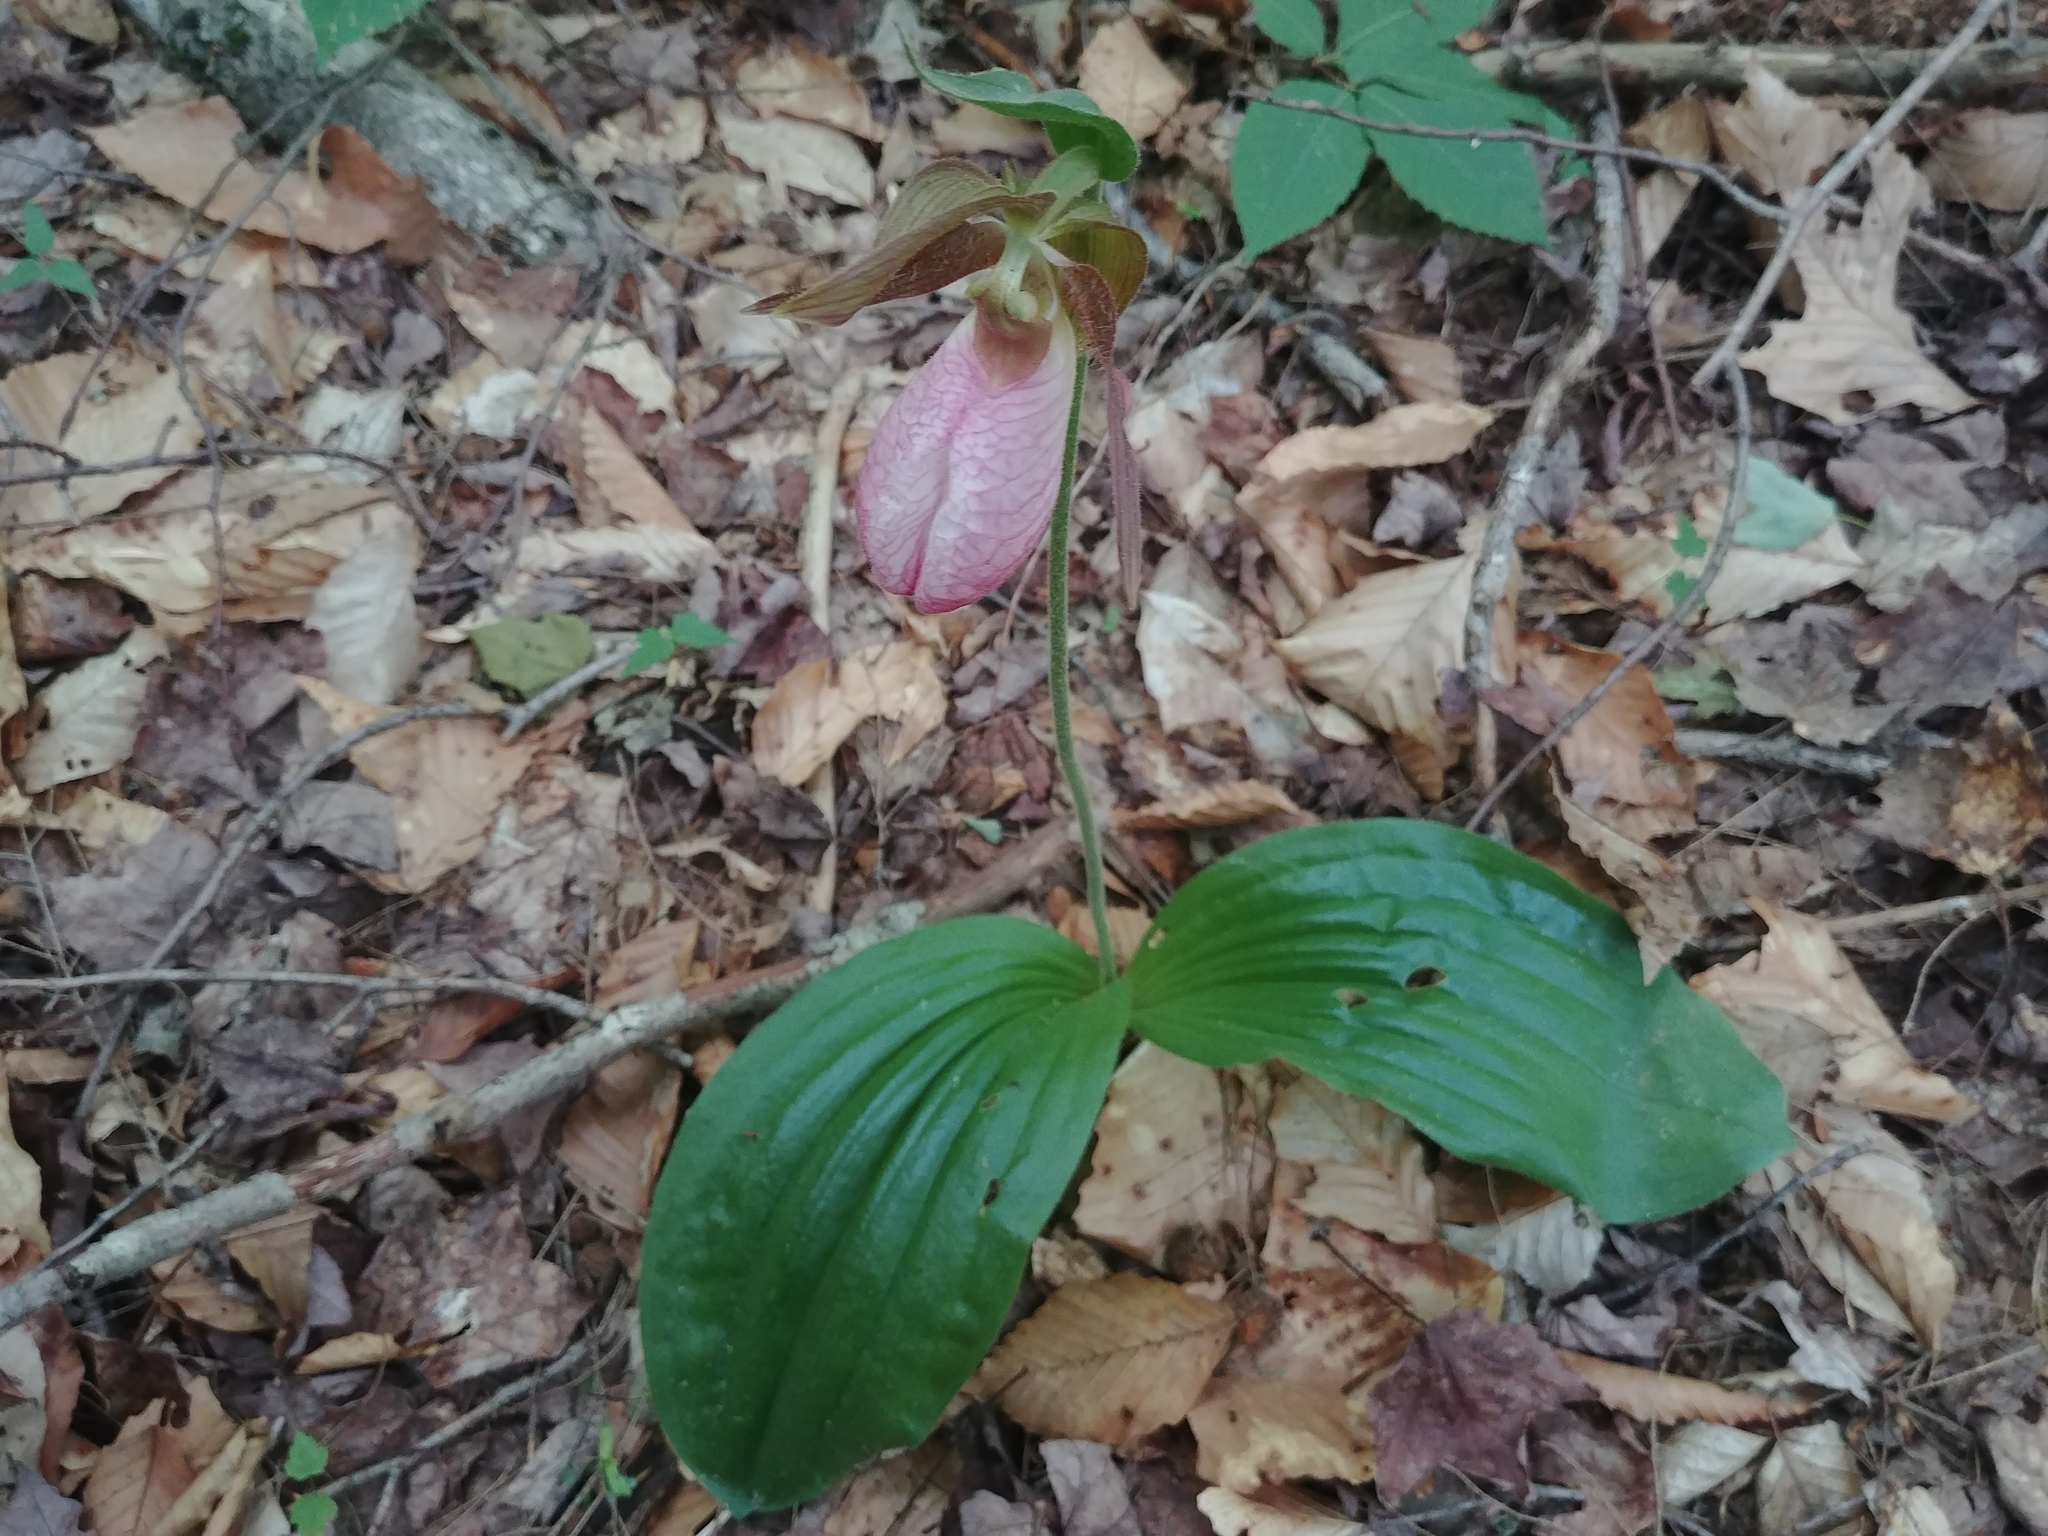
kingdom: Plantae
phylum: Tracheophyta
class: Liliopsida
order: Asparagales
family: Orchidaceae
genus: Cypripedium
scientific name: Cypripedium acaule
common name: Pink lady's-slipper
